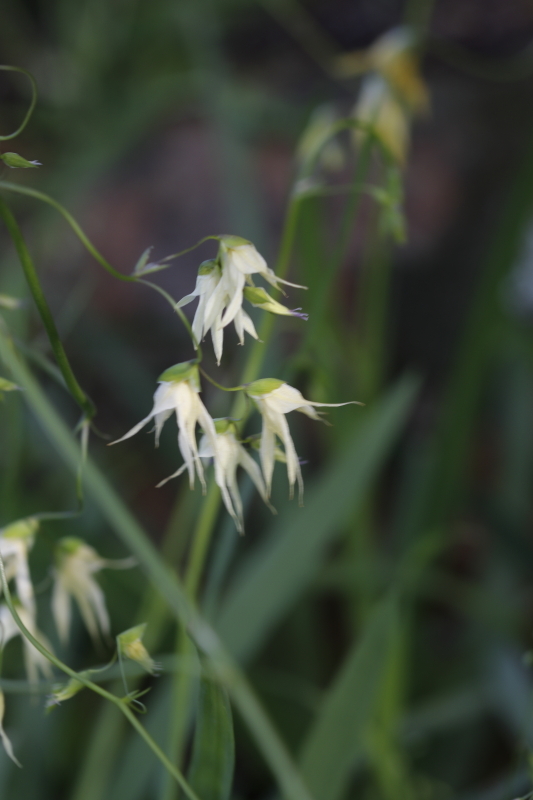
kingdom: Plantae
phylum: Tracheophyta
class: Liliopsida
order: Asparagales
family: Iridaceae
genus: Melasphaerula
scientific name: Melasphaerula graminea
